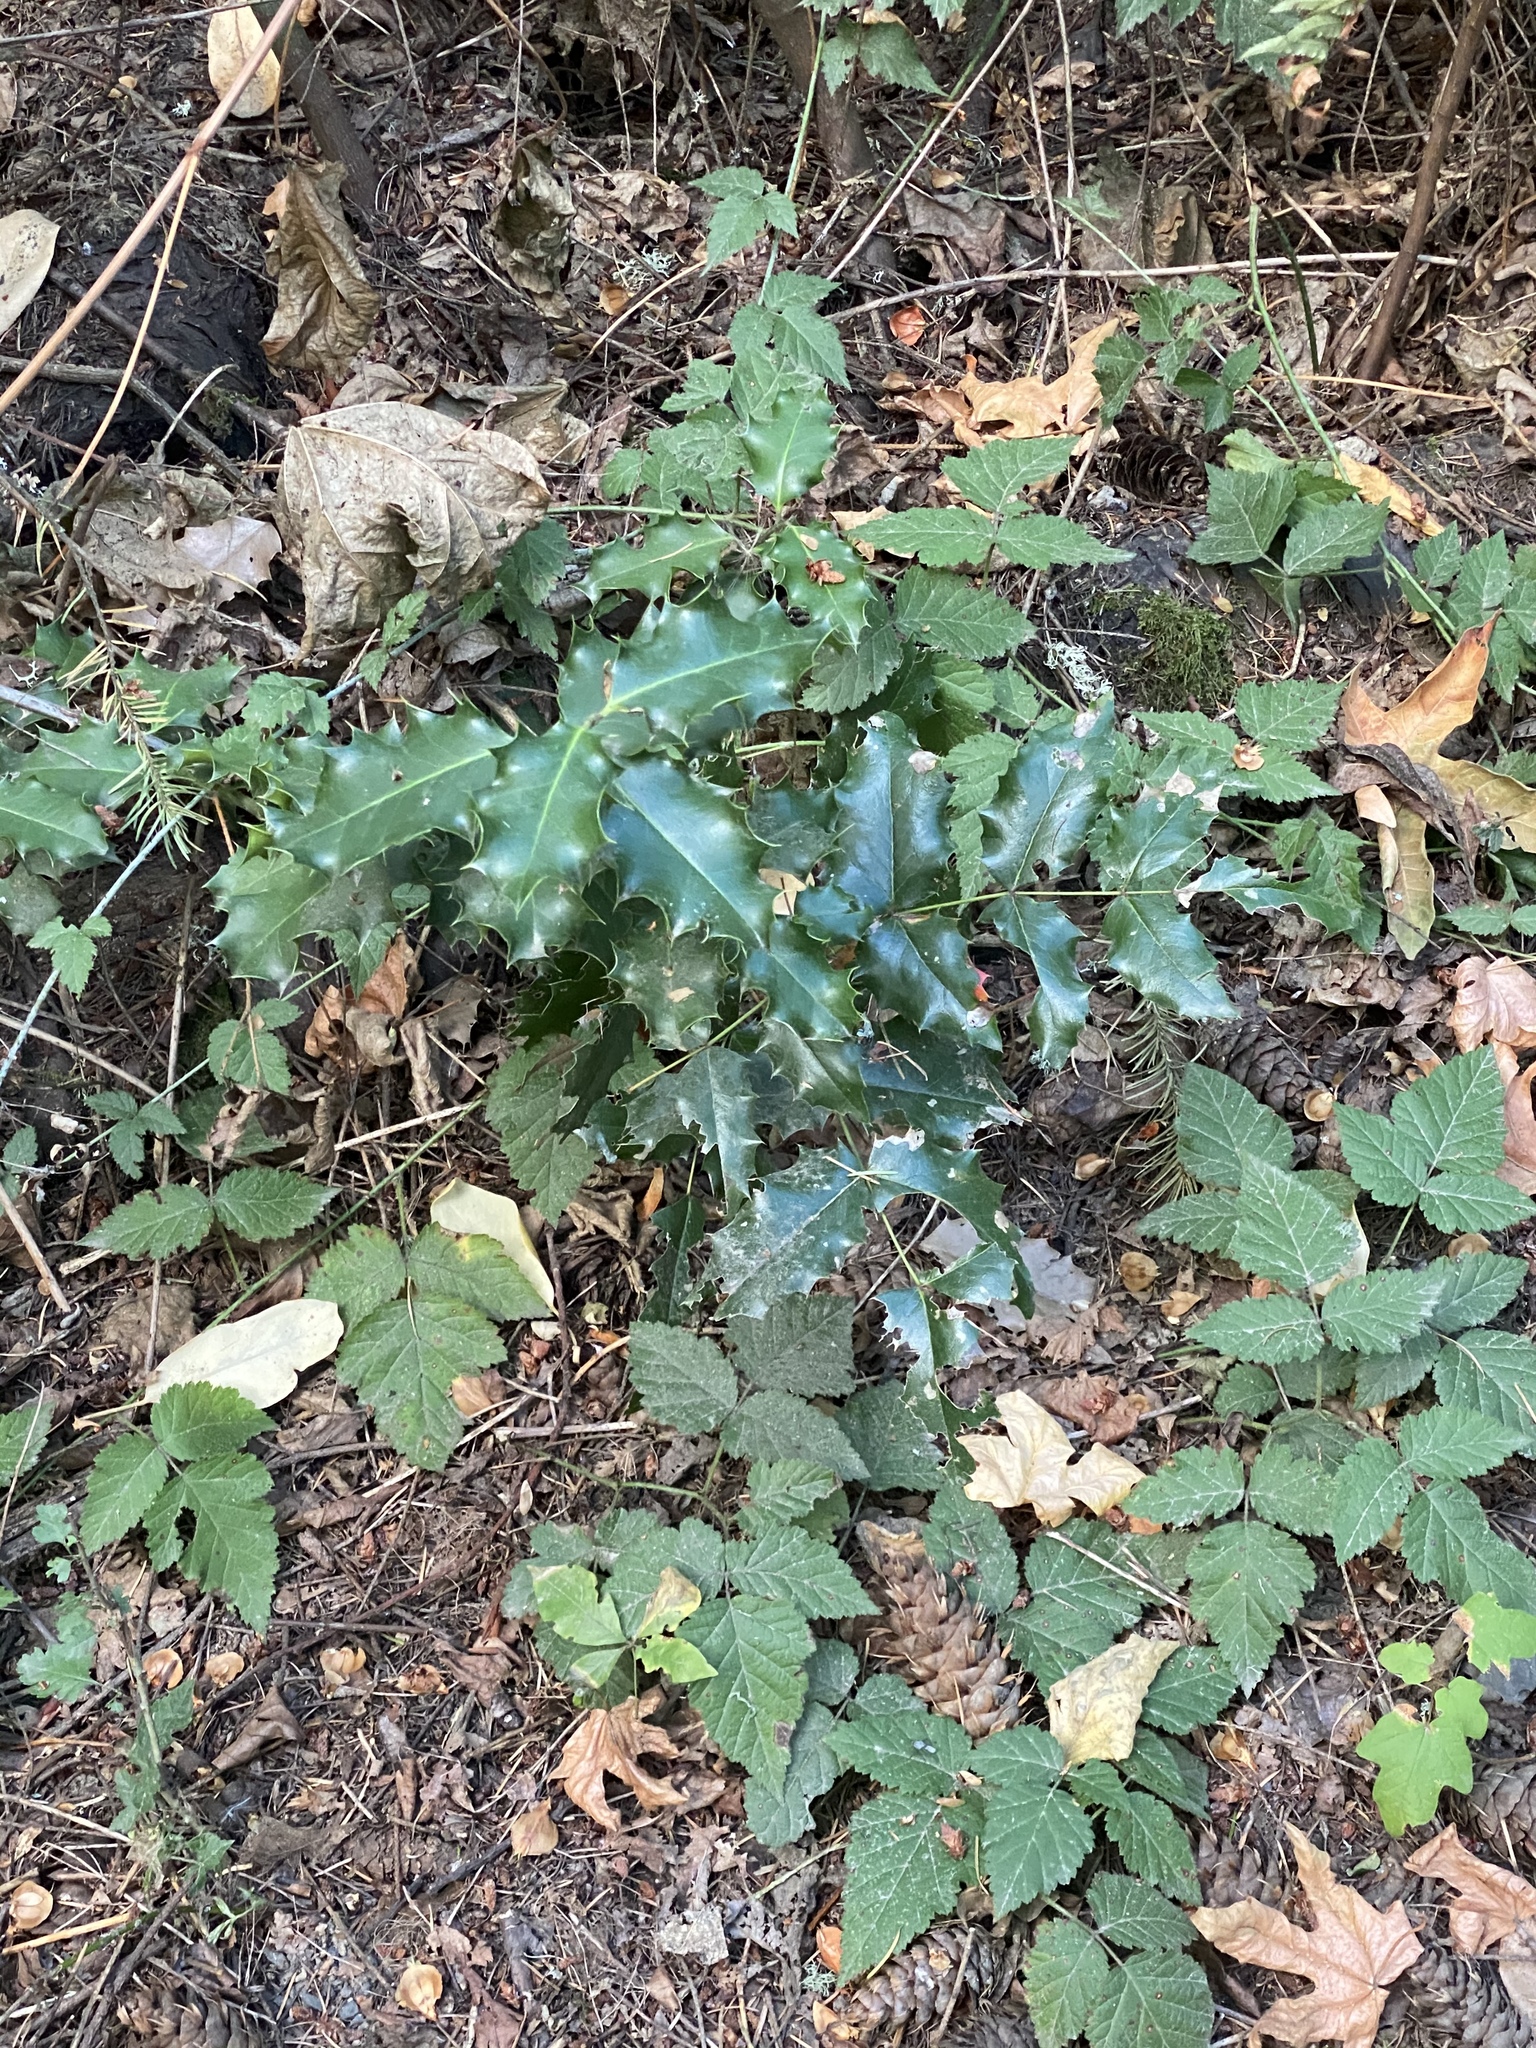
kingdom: Plantae
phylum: Tracheophyta
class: Magnoliopsida
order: Aquifoliales
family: Aquifoliaceae
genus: Ilex
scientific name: Ilex aquifolium
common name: English holly
